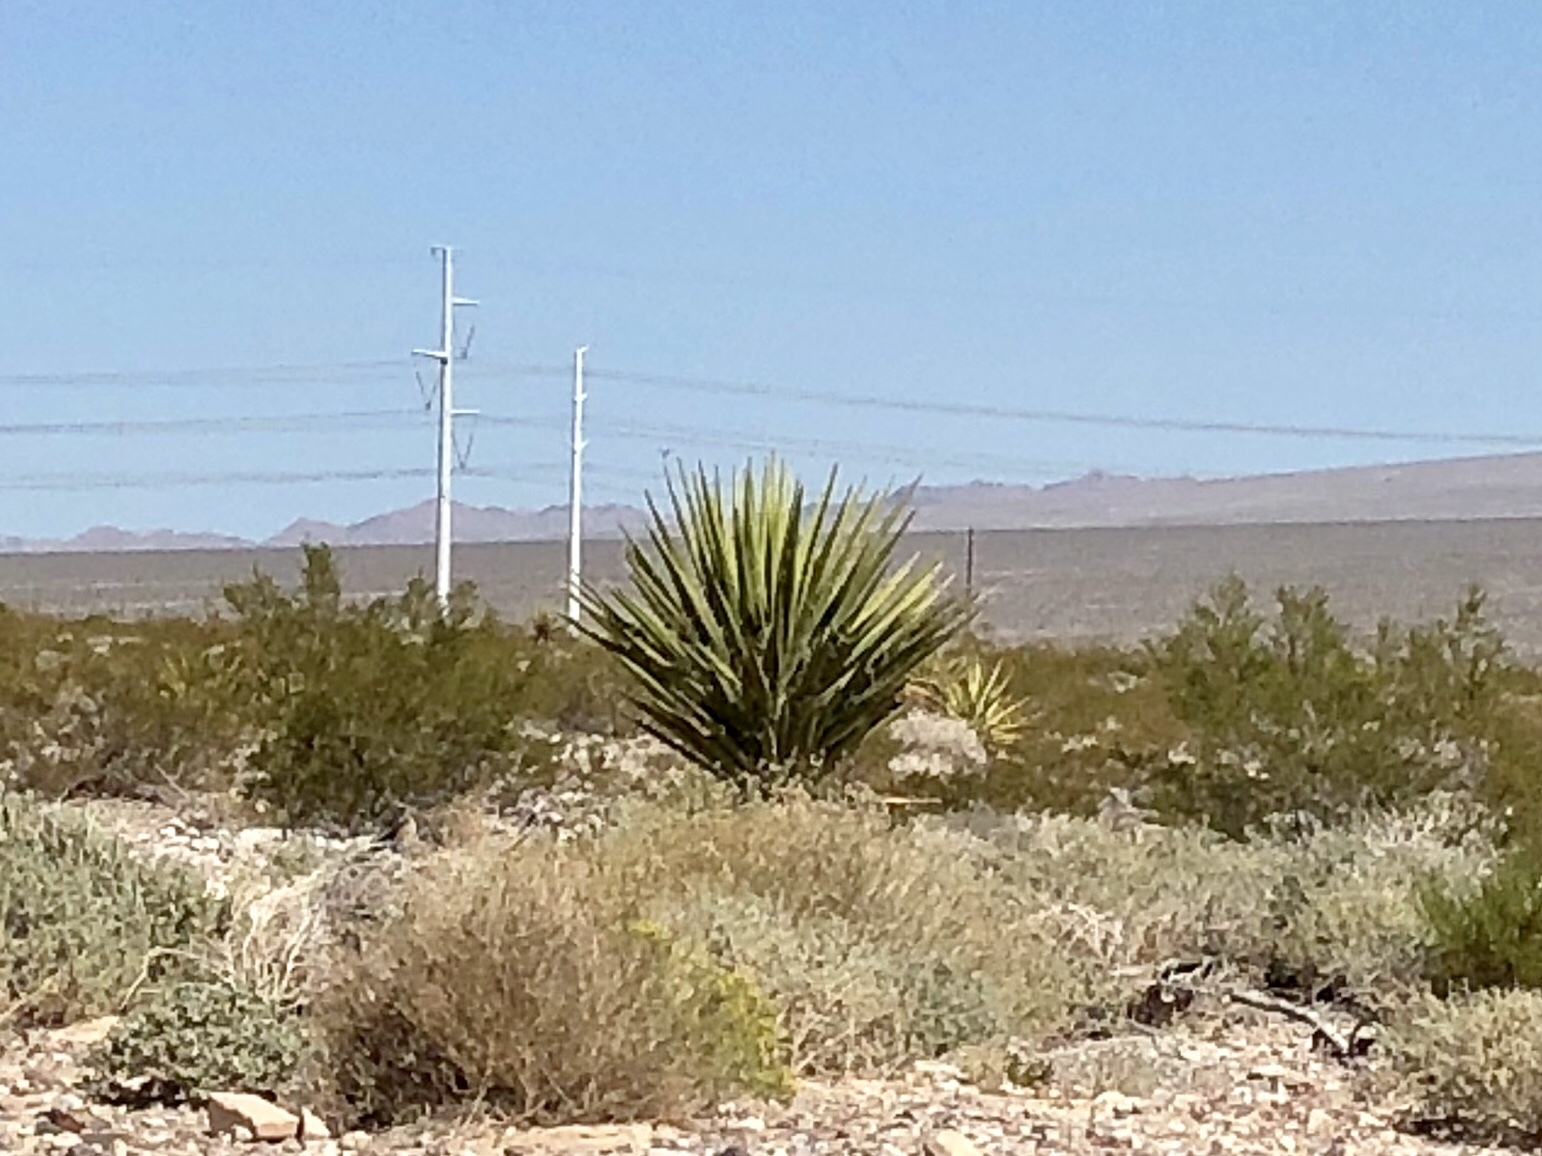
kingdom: Plantae
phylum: Tracheophyta
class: Liliopsida
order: Asparagales
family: Asparagaceae
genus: Yucca
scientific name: Yucca schidigera
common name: Mojave yucca
